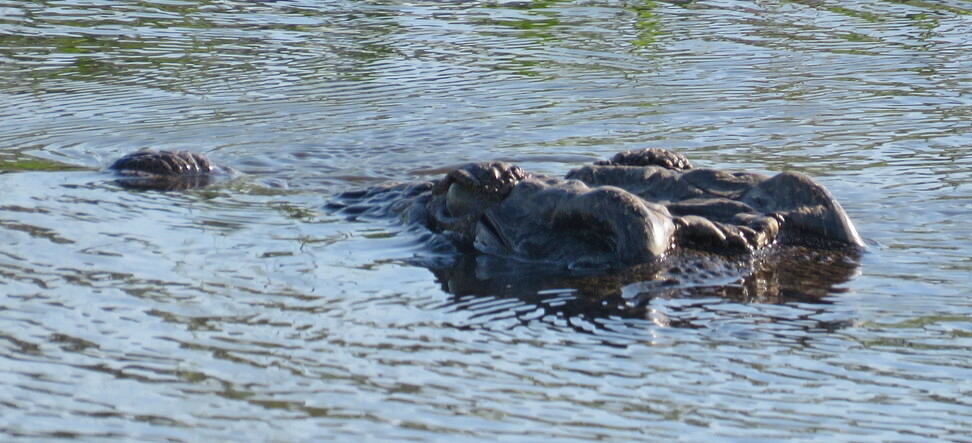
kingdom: Animalia
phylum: Chordata
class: Crocodylia
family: Crocodylidae
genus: Crocodylus
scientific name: Crocodylus niloticus
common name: Nile crocodile
